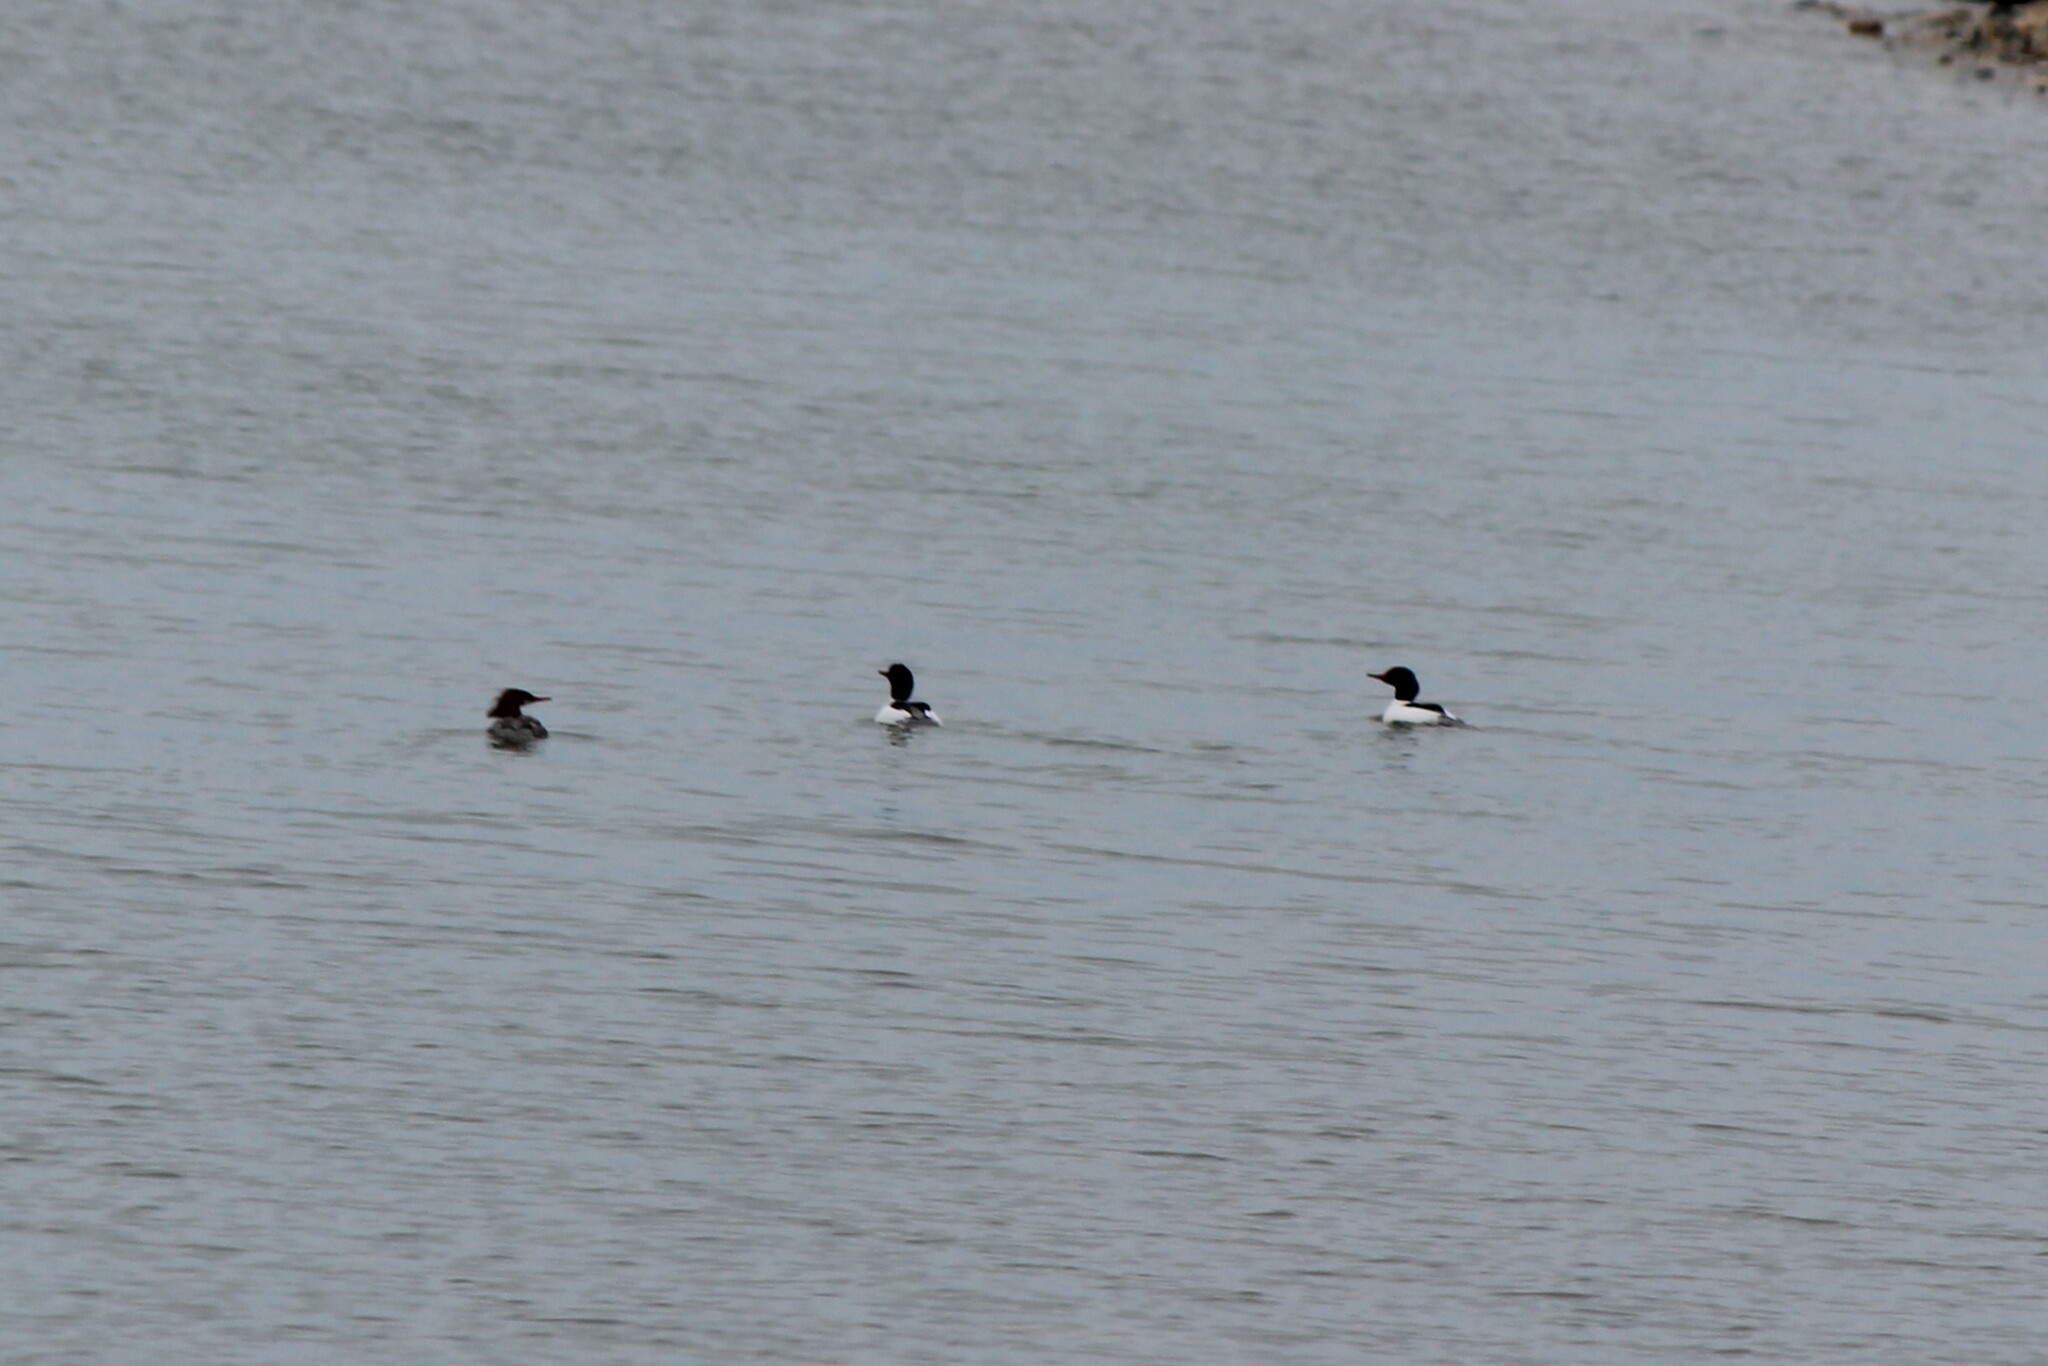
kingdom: Animalia
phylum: Chordata
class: Aves
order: Anseriformes
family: Anatidae
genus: Mergus
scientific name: Mergus merganser
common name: Common merganser
